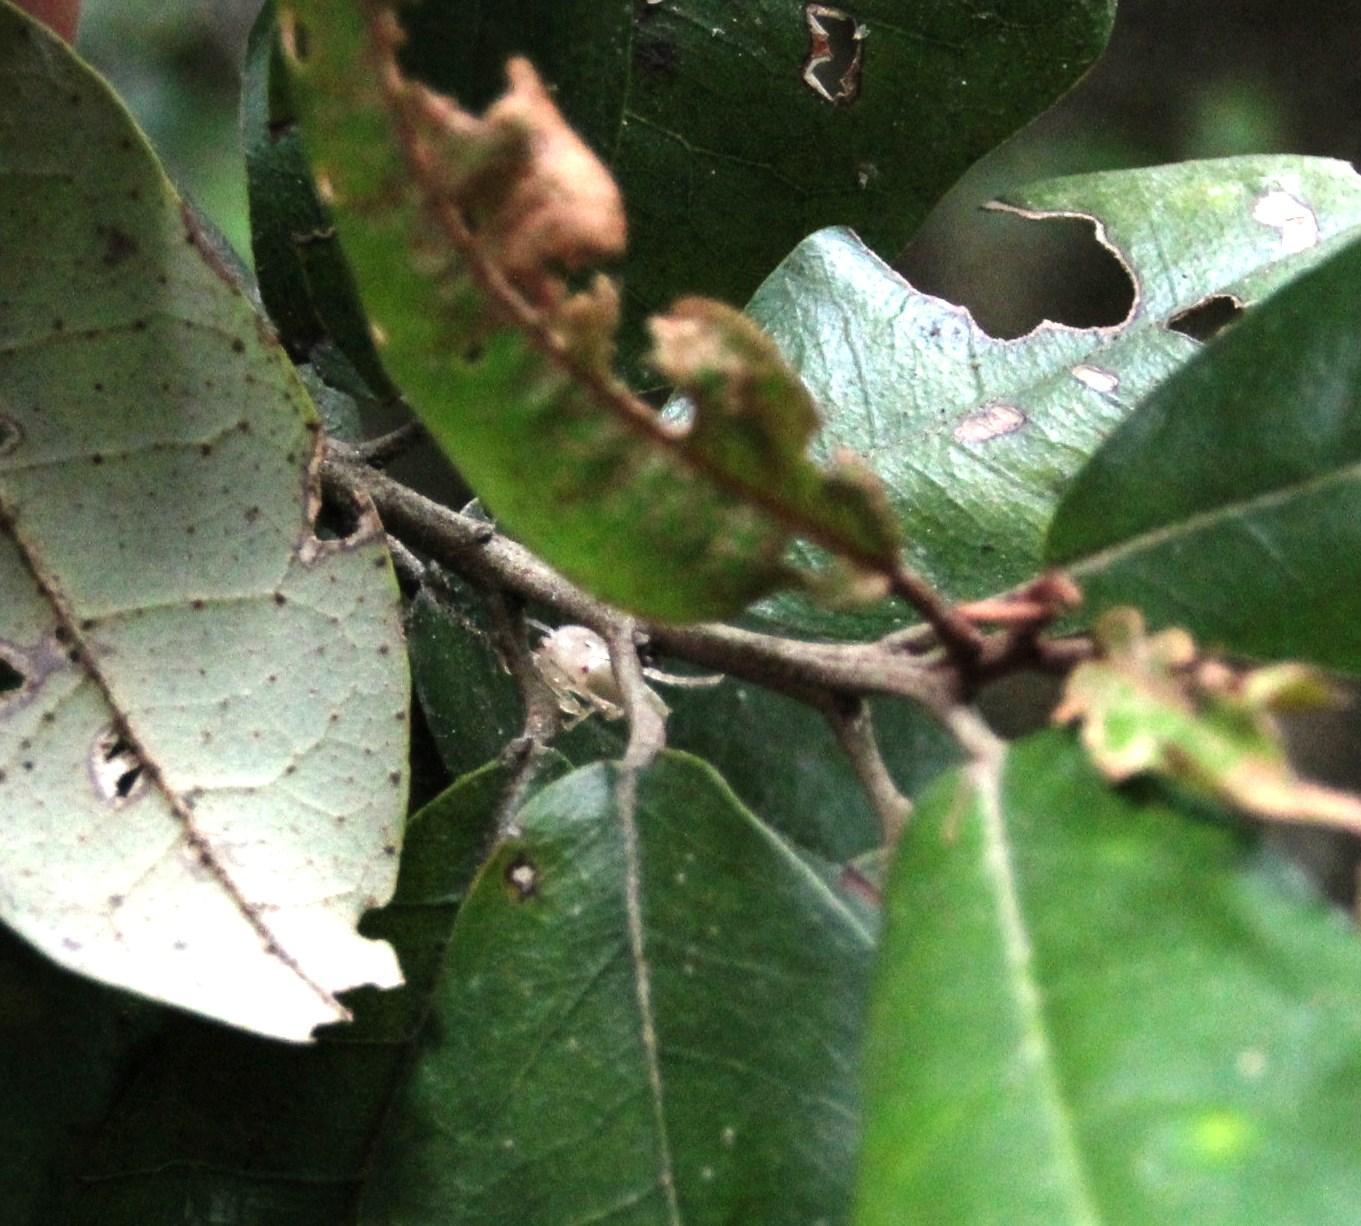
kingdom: Animalia
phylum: Arthropoda
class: Arachnida
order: Araneae
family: Anyphaenidae
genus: Oxysoma
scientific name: Oxysoma punctatum
